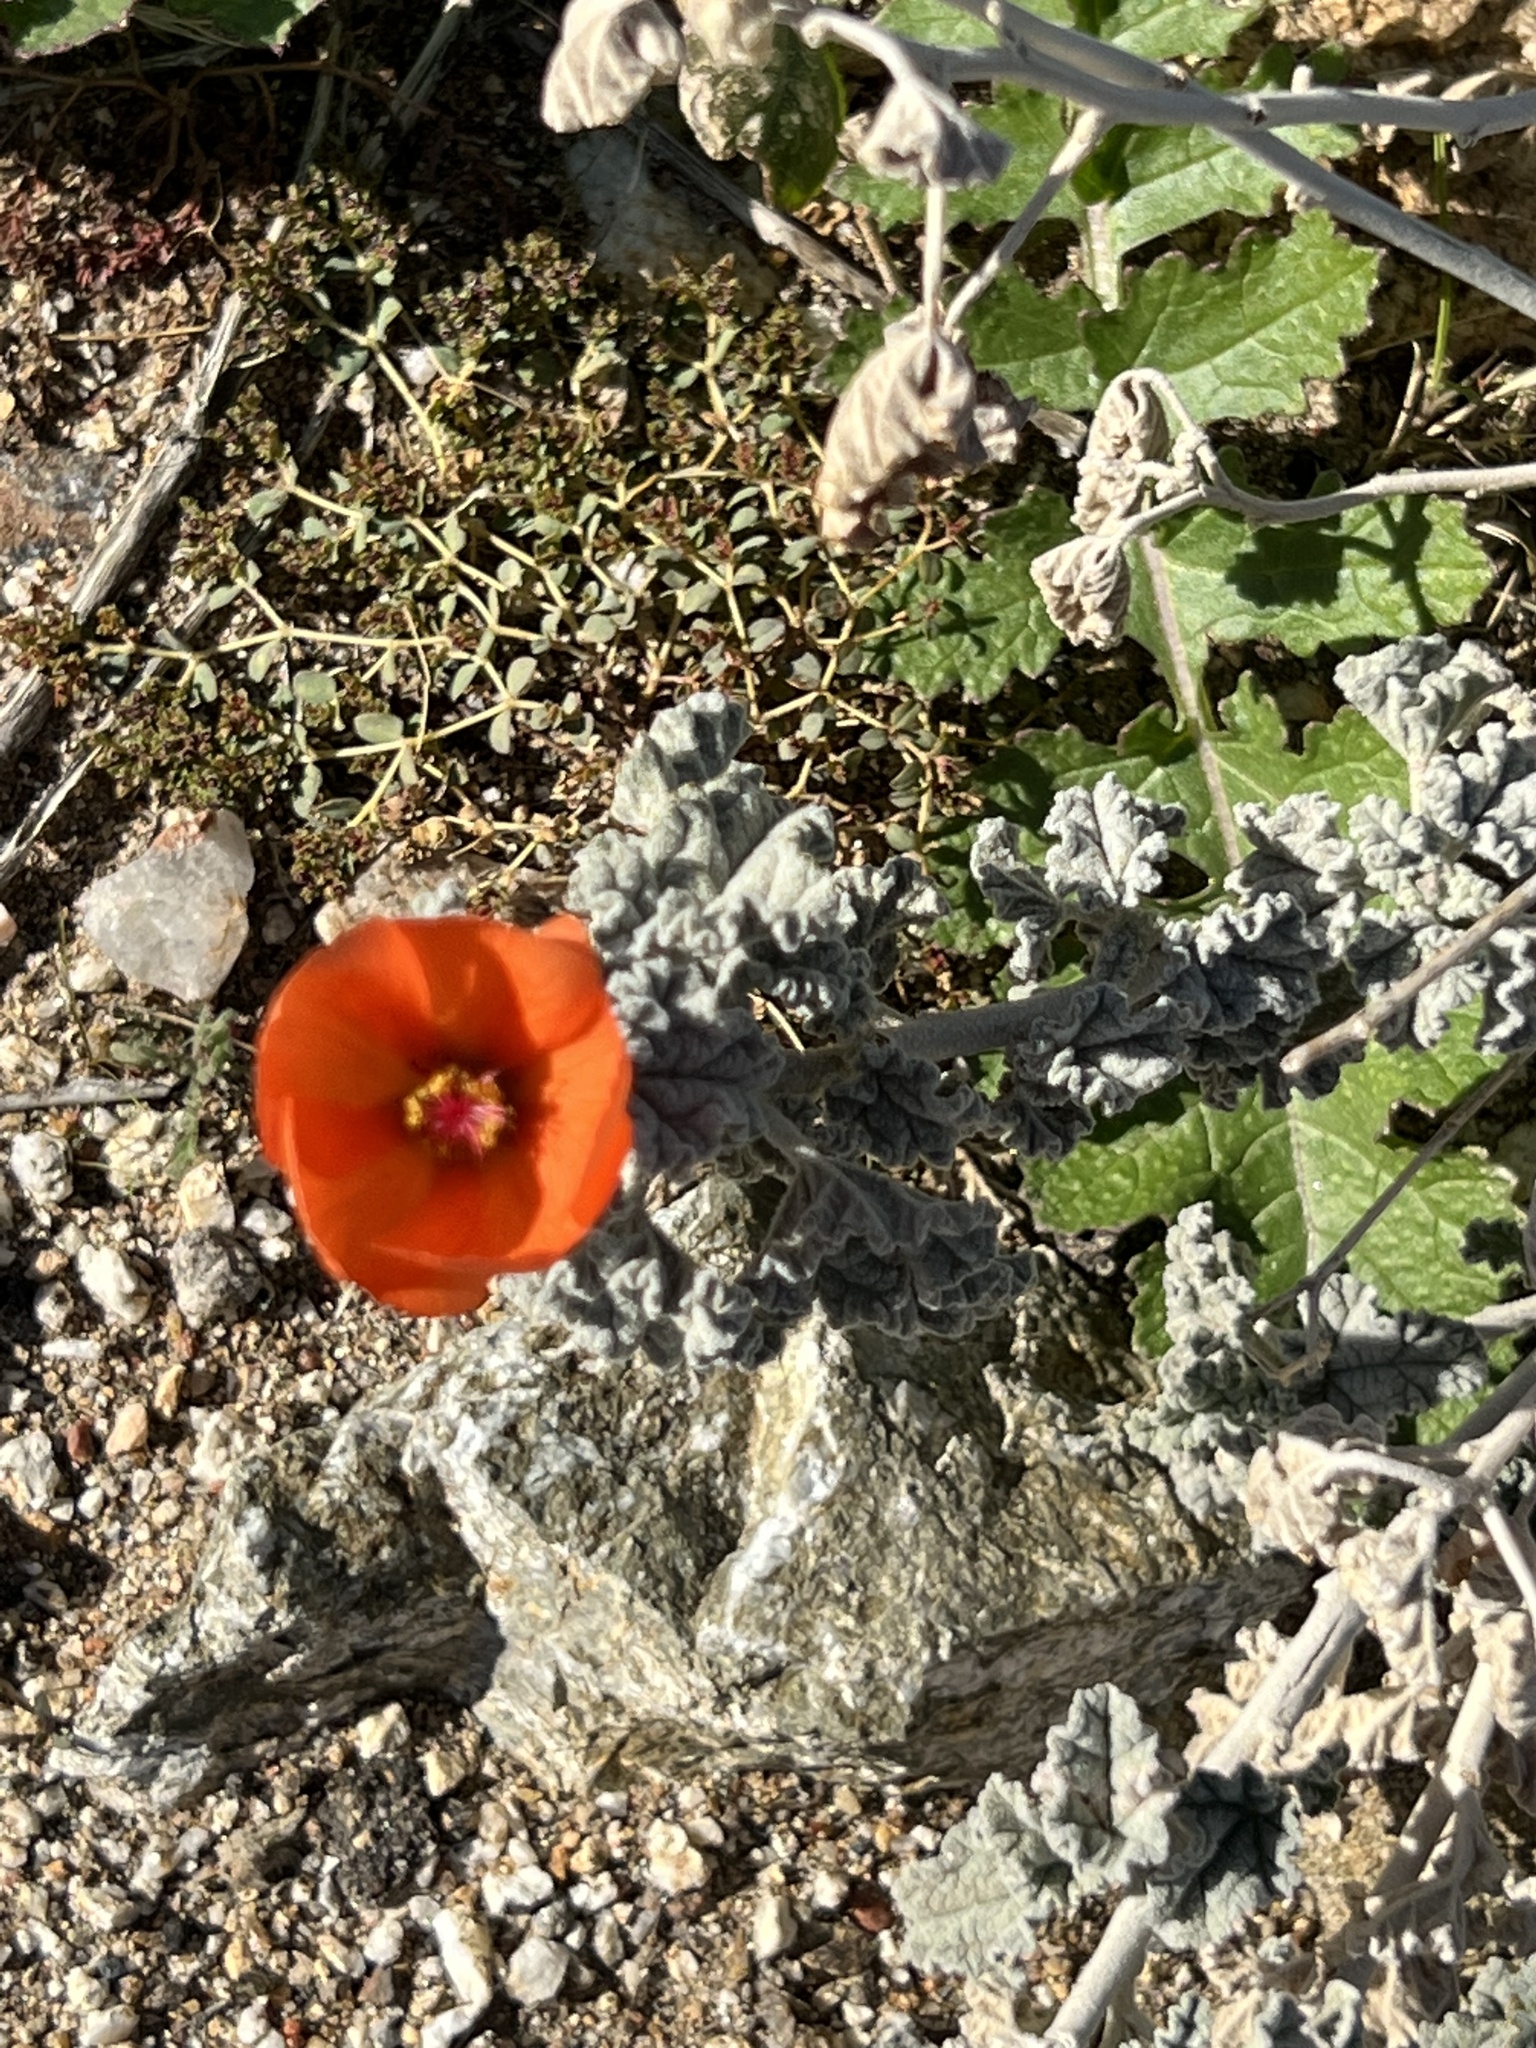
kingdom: Plantae
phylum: Tracheophyta
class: Magnoliopsida
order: Malvales
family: Malvaceae
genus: Sphaeralcea
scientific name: Sphaeralcea ambigua
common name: Apricot globe-mallow
